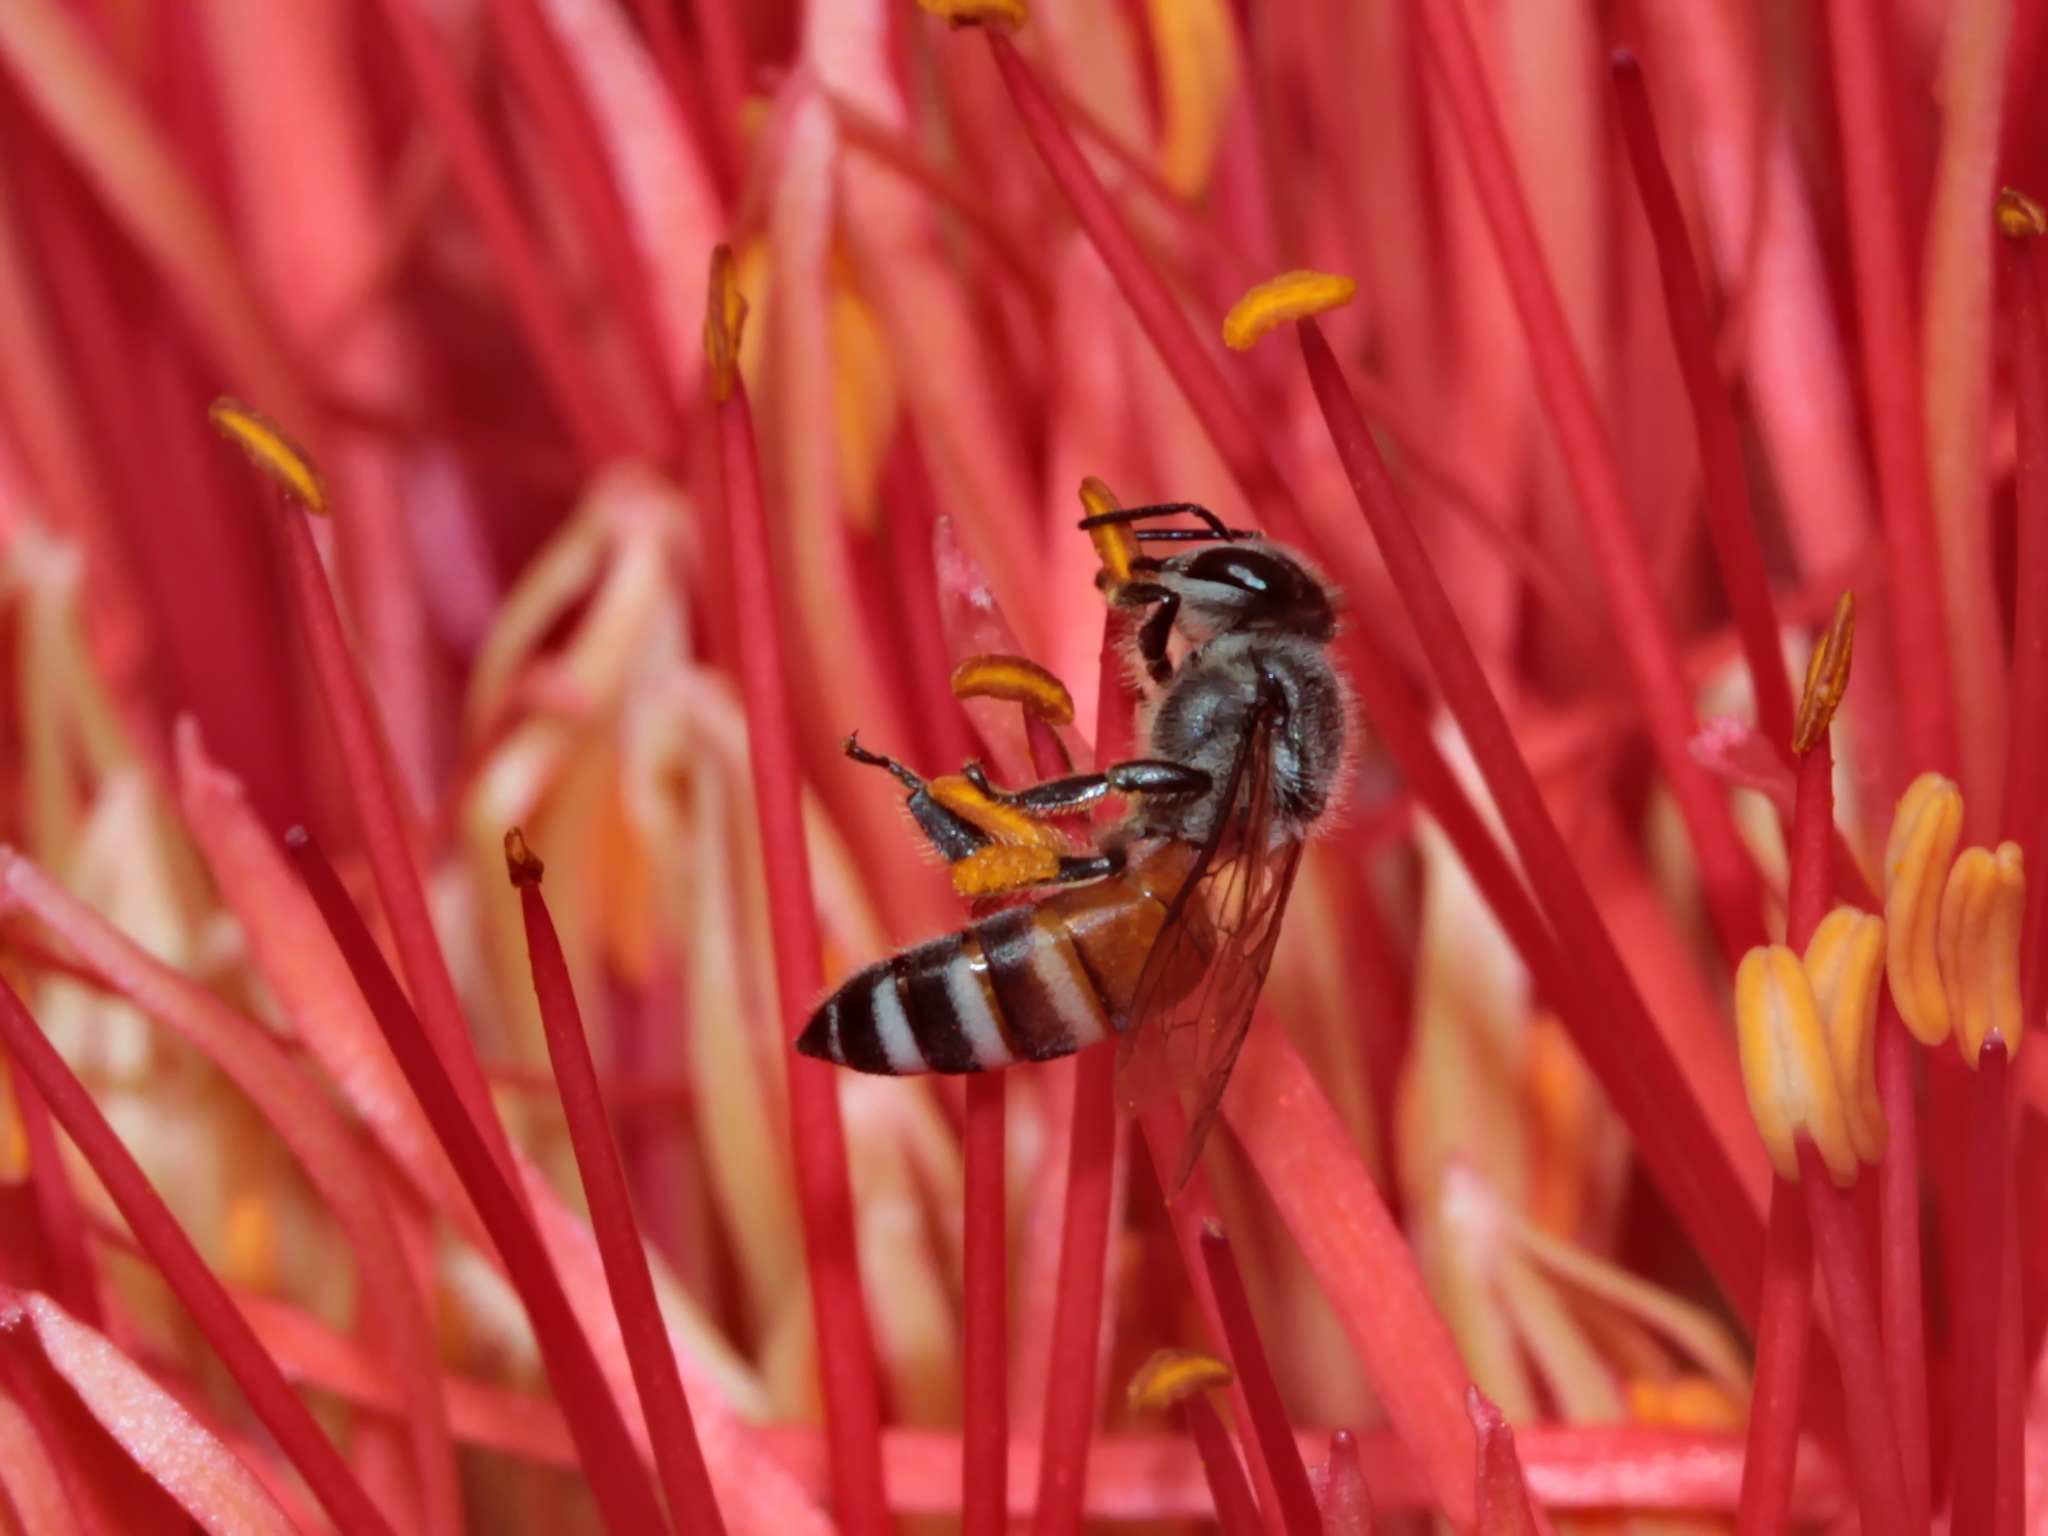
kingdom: Animalia
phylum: Arthropoda
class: Insecta
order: Hymenoptera
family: Apidae
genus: Apis
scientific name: Apis florea
